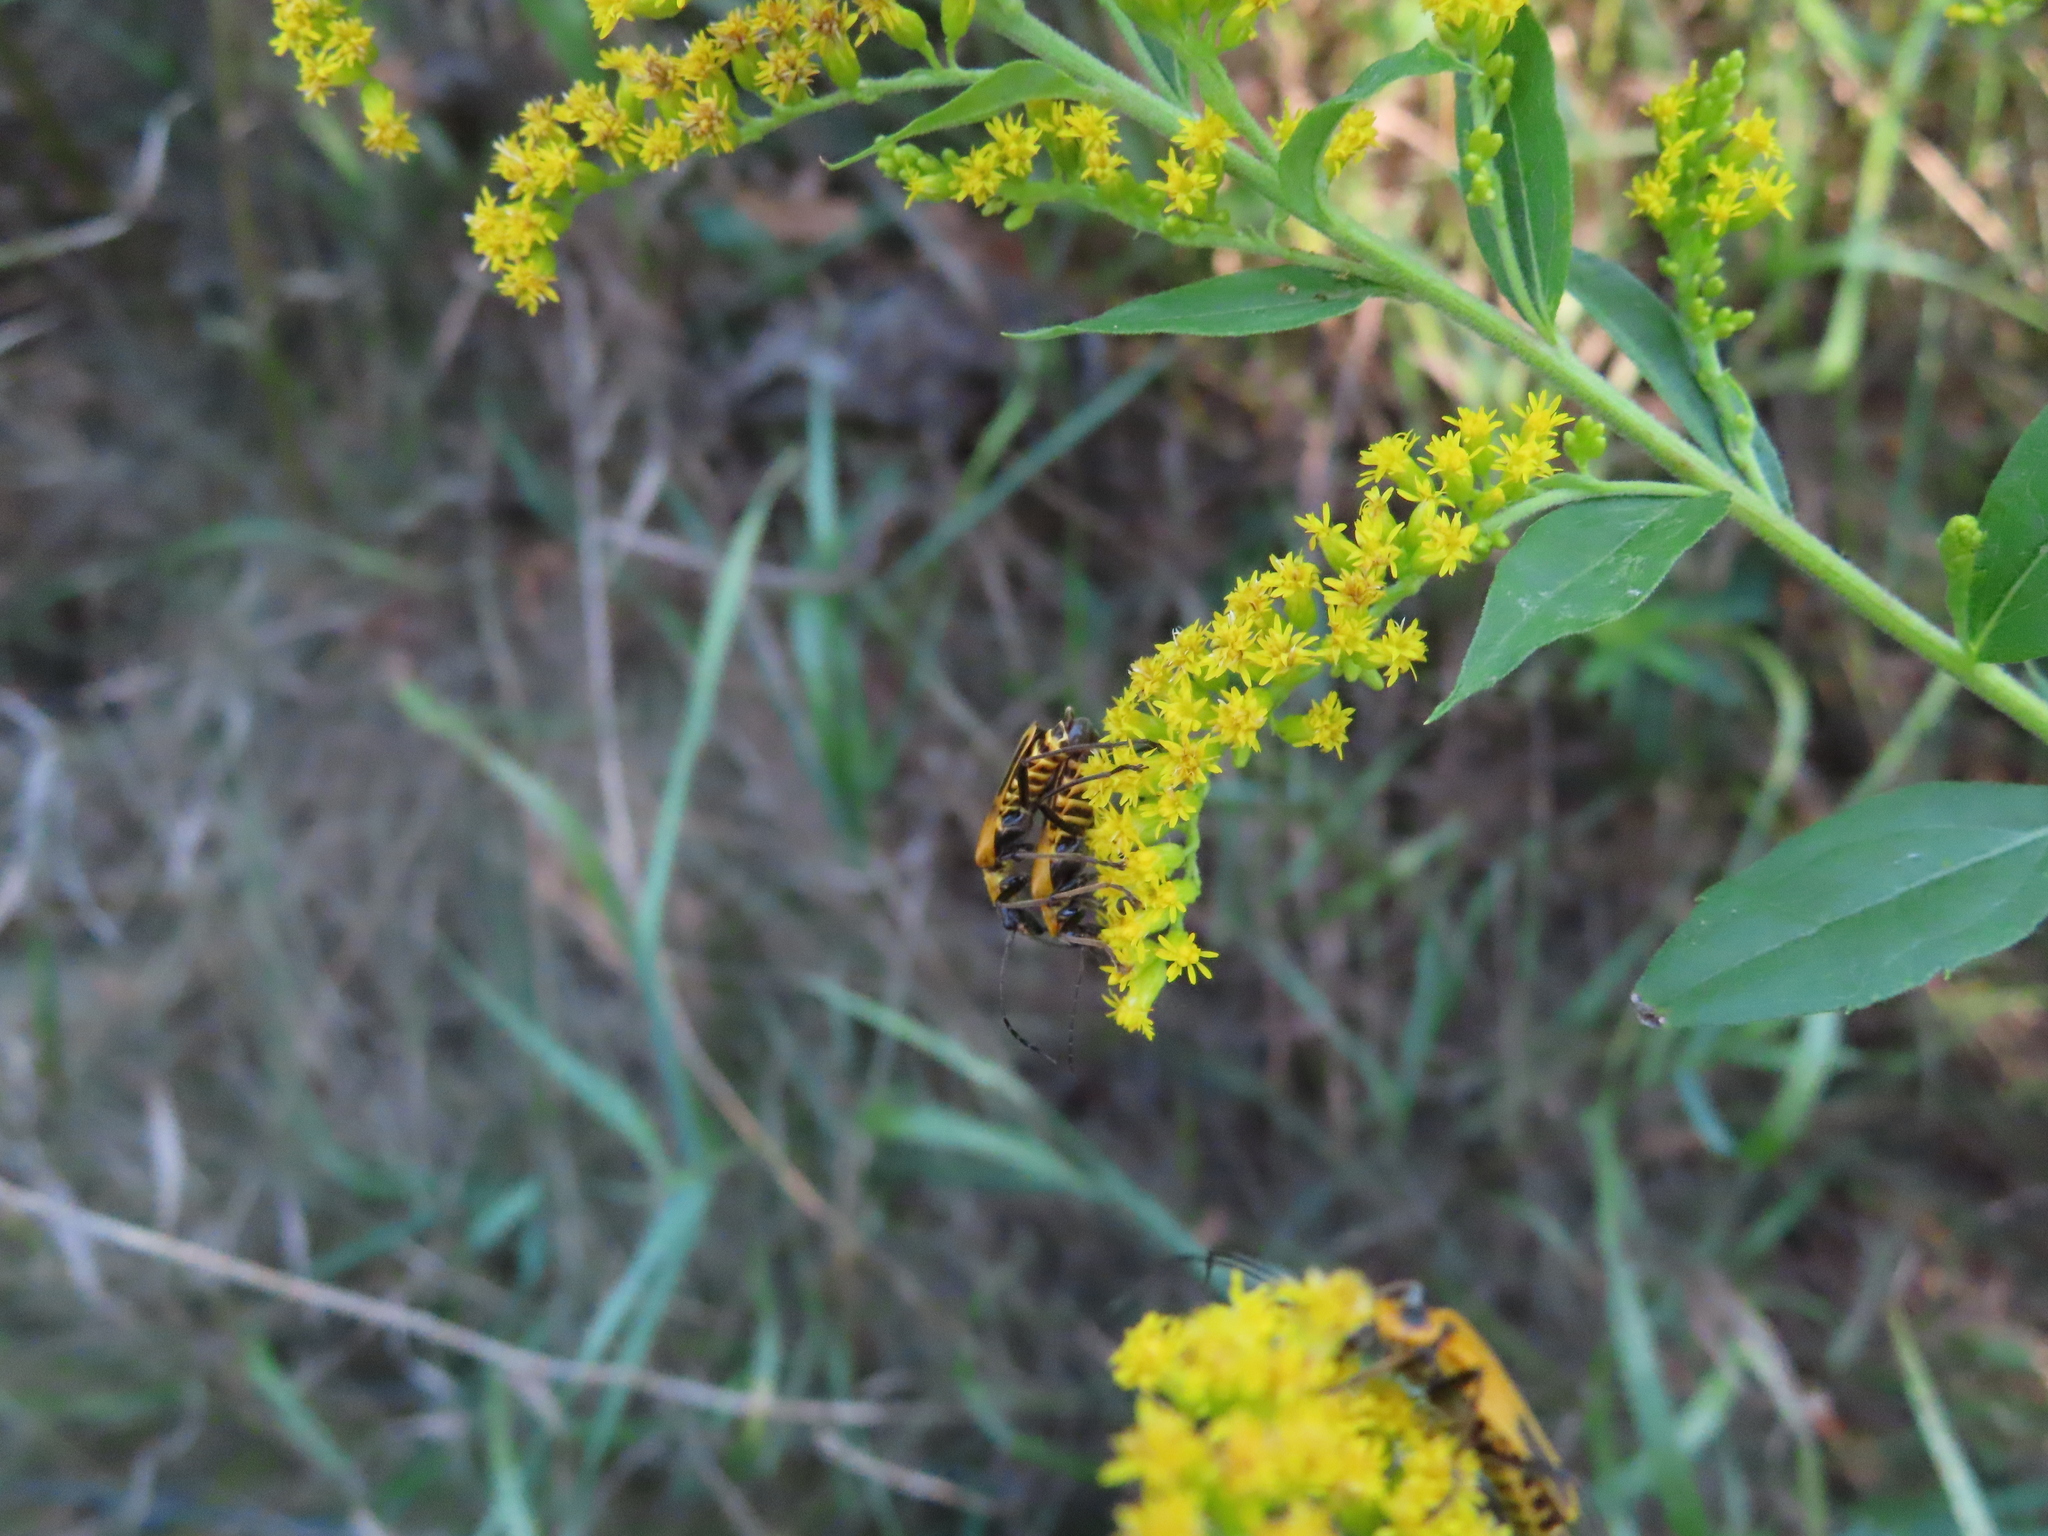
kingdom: Animalia
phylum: Arthropoda
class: Insecta
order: Coleoptera
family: Cantharidae
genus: Chauliognathus
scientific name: Chauliognathus pensylvanicus
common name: Goldenrod soldier beetle
